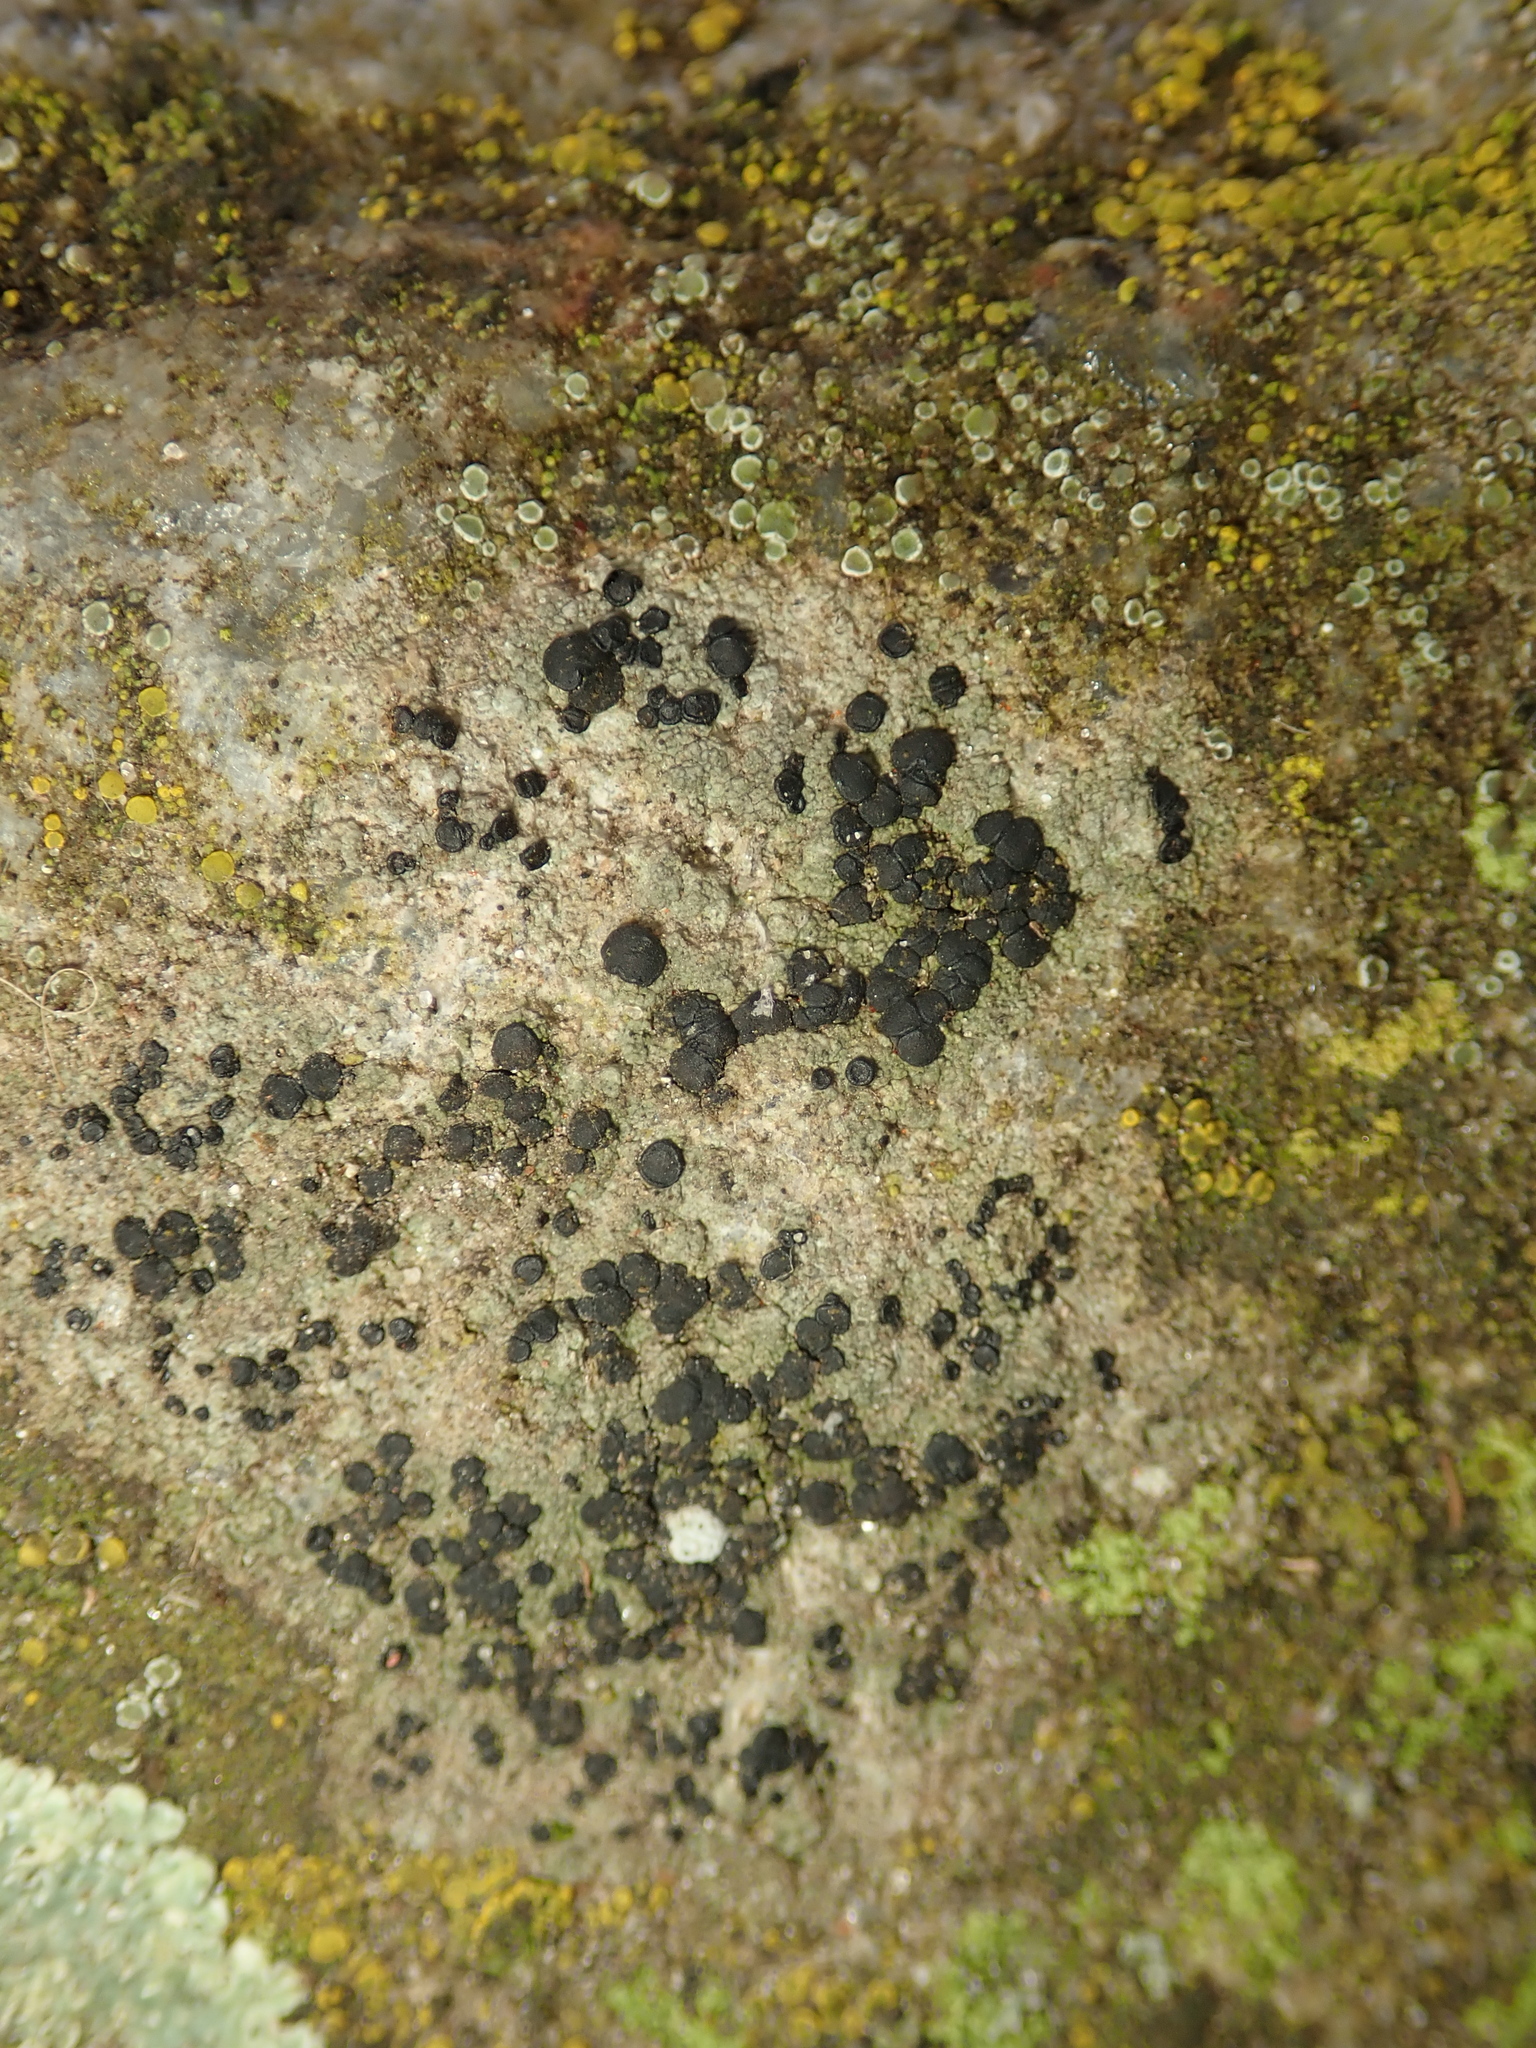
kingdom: Fungi
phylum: Ascomycota
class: Lecanoromycetes
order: Lecanorales
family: Lecanoraceae
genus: Lecidella
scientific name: Lecidella stigmatea
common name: Limestone disc lichen
